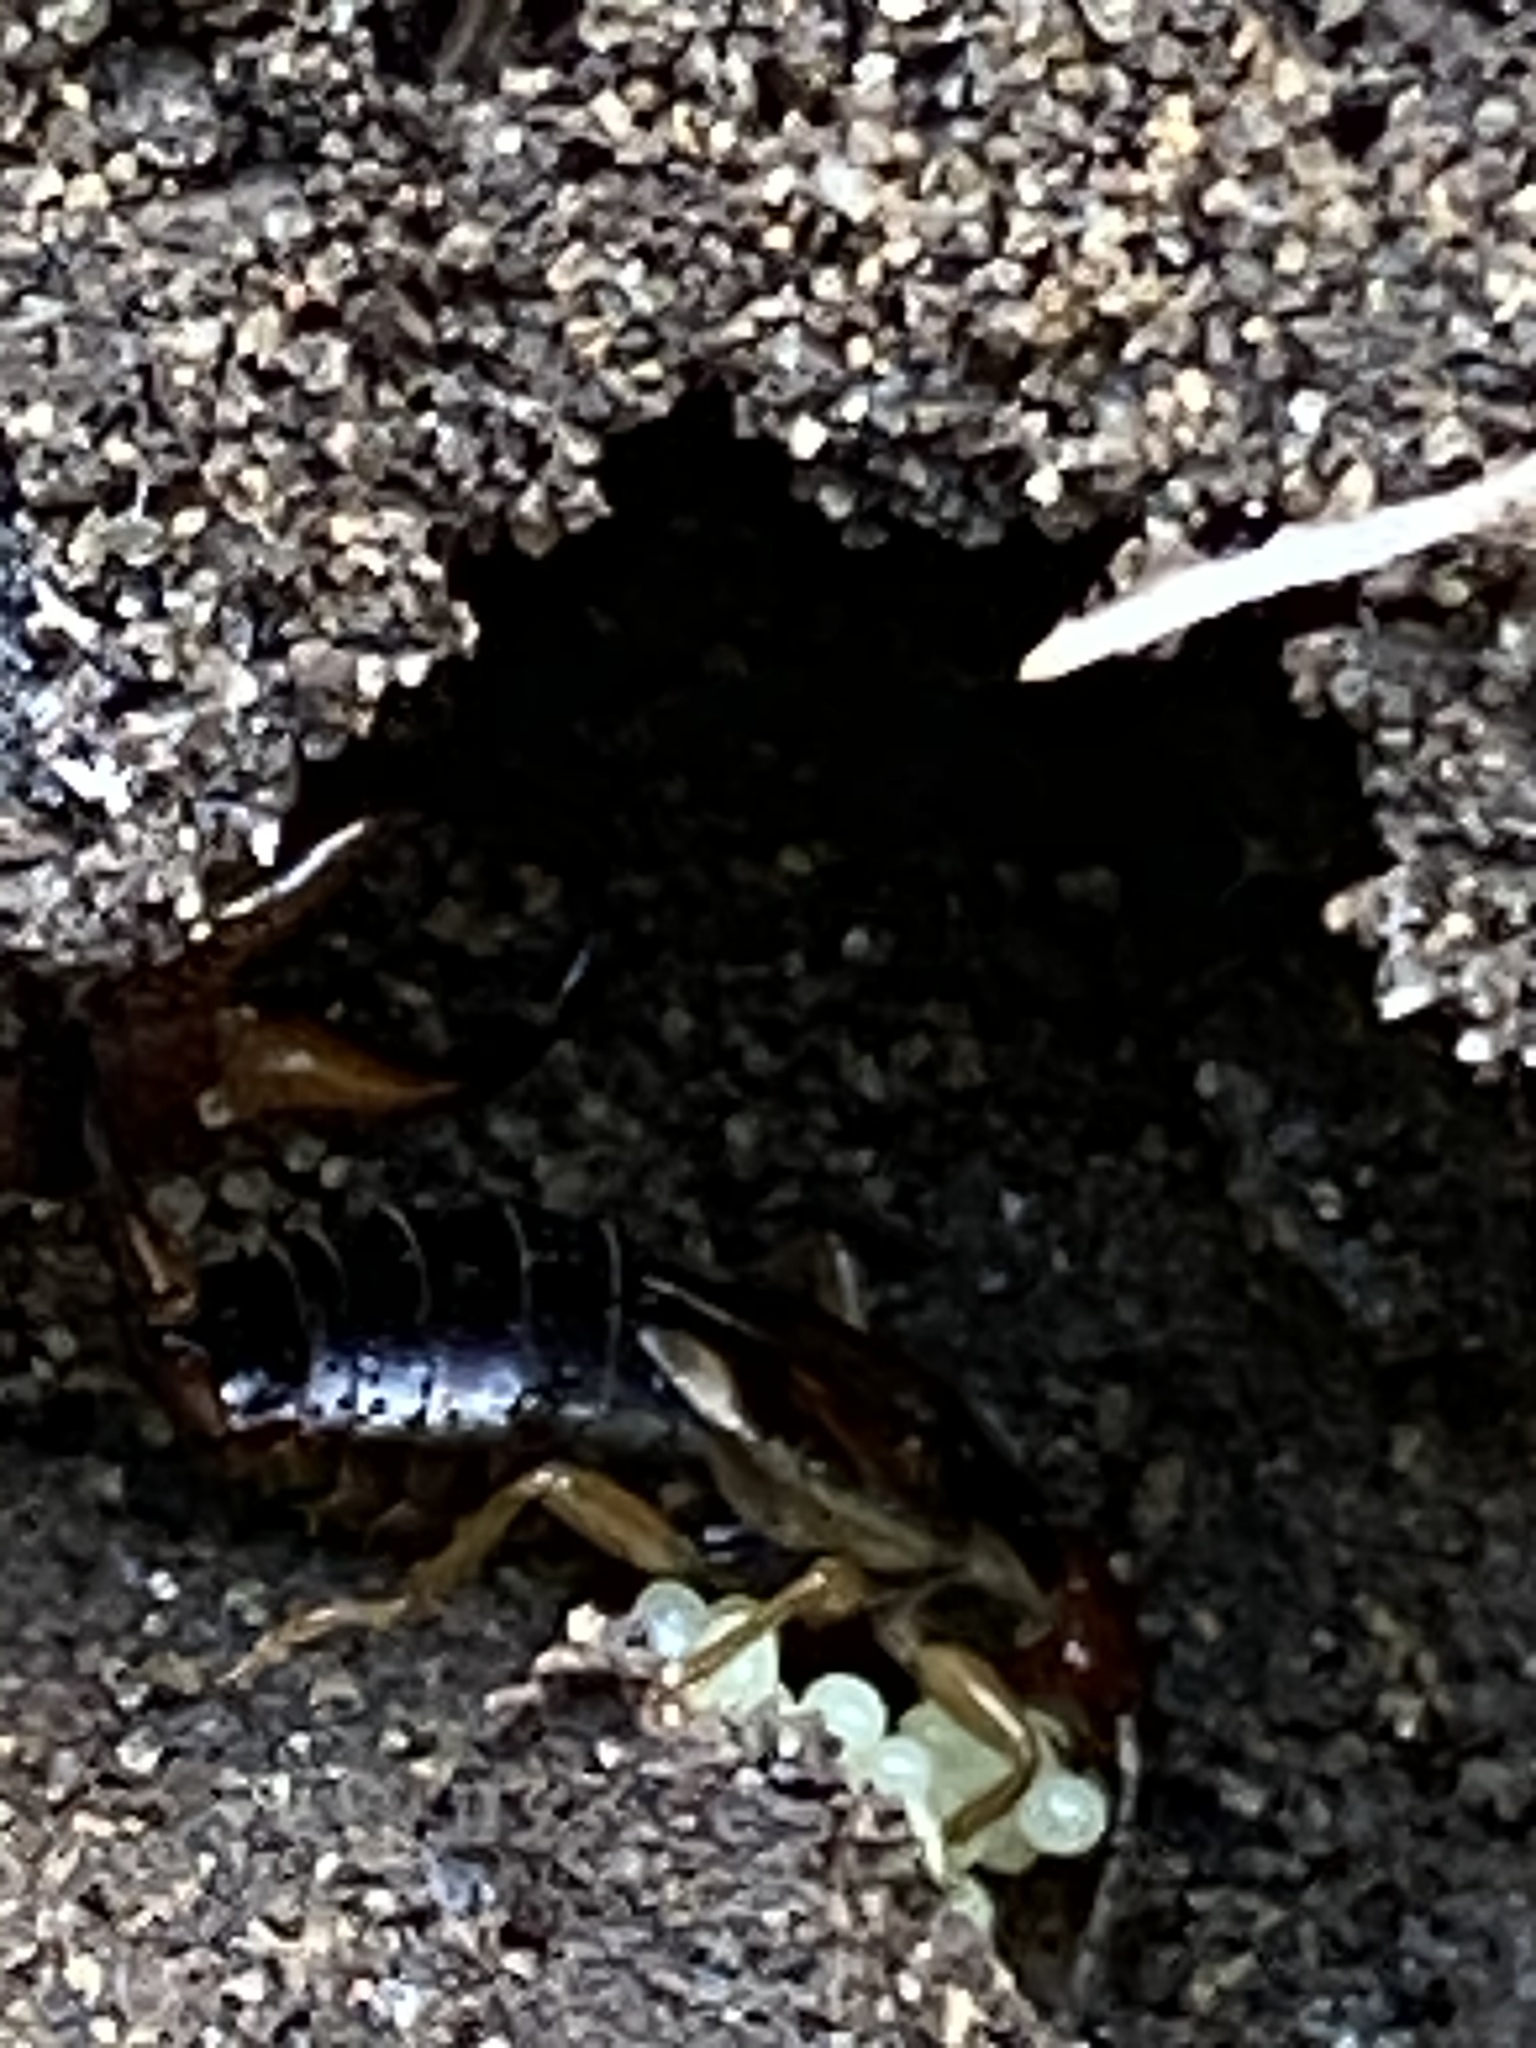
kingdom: Animalia
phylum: Arthropoda
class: Insecta
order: Dermaptera
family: Forficulidae
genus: Forficula
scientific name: Forficula
